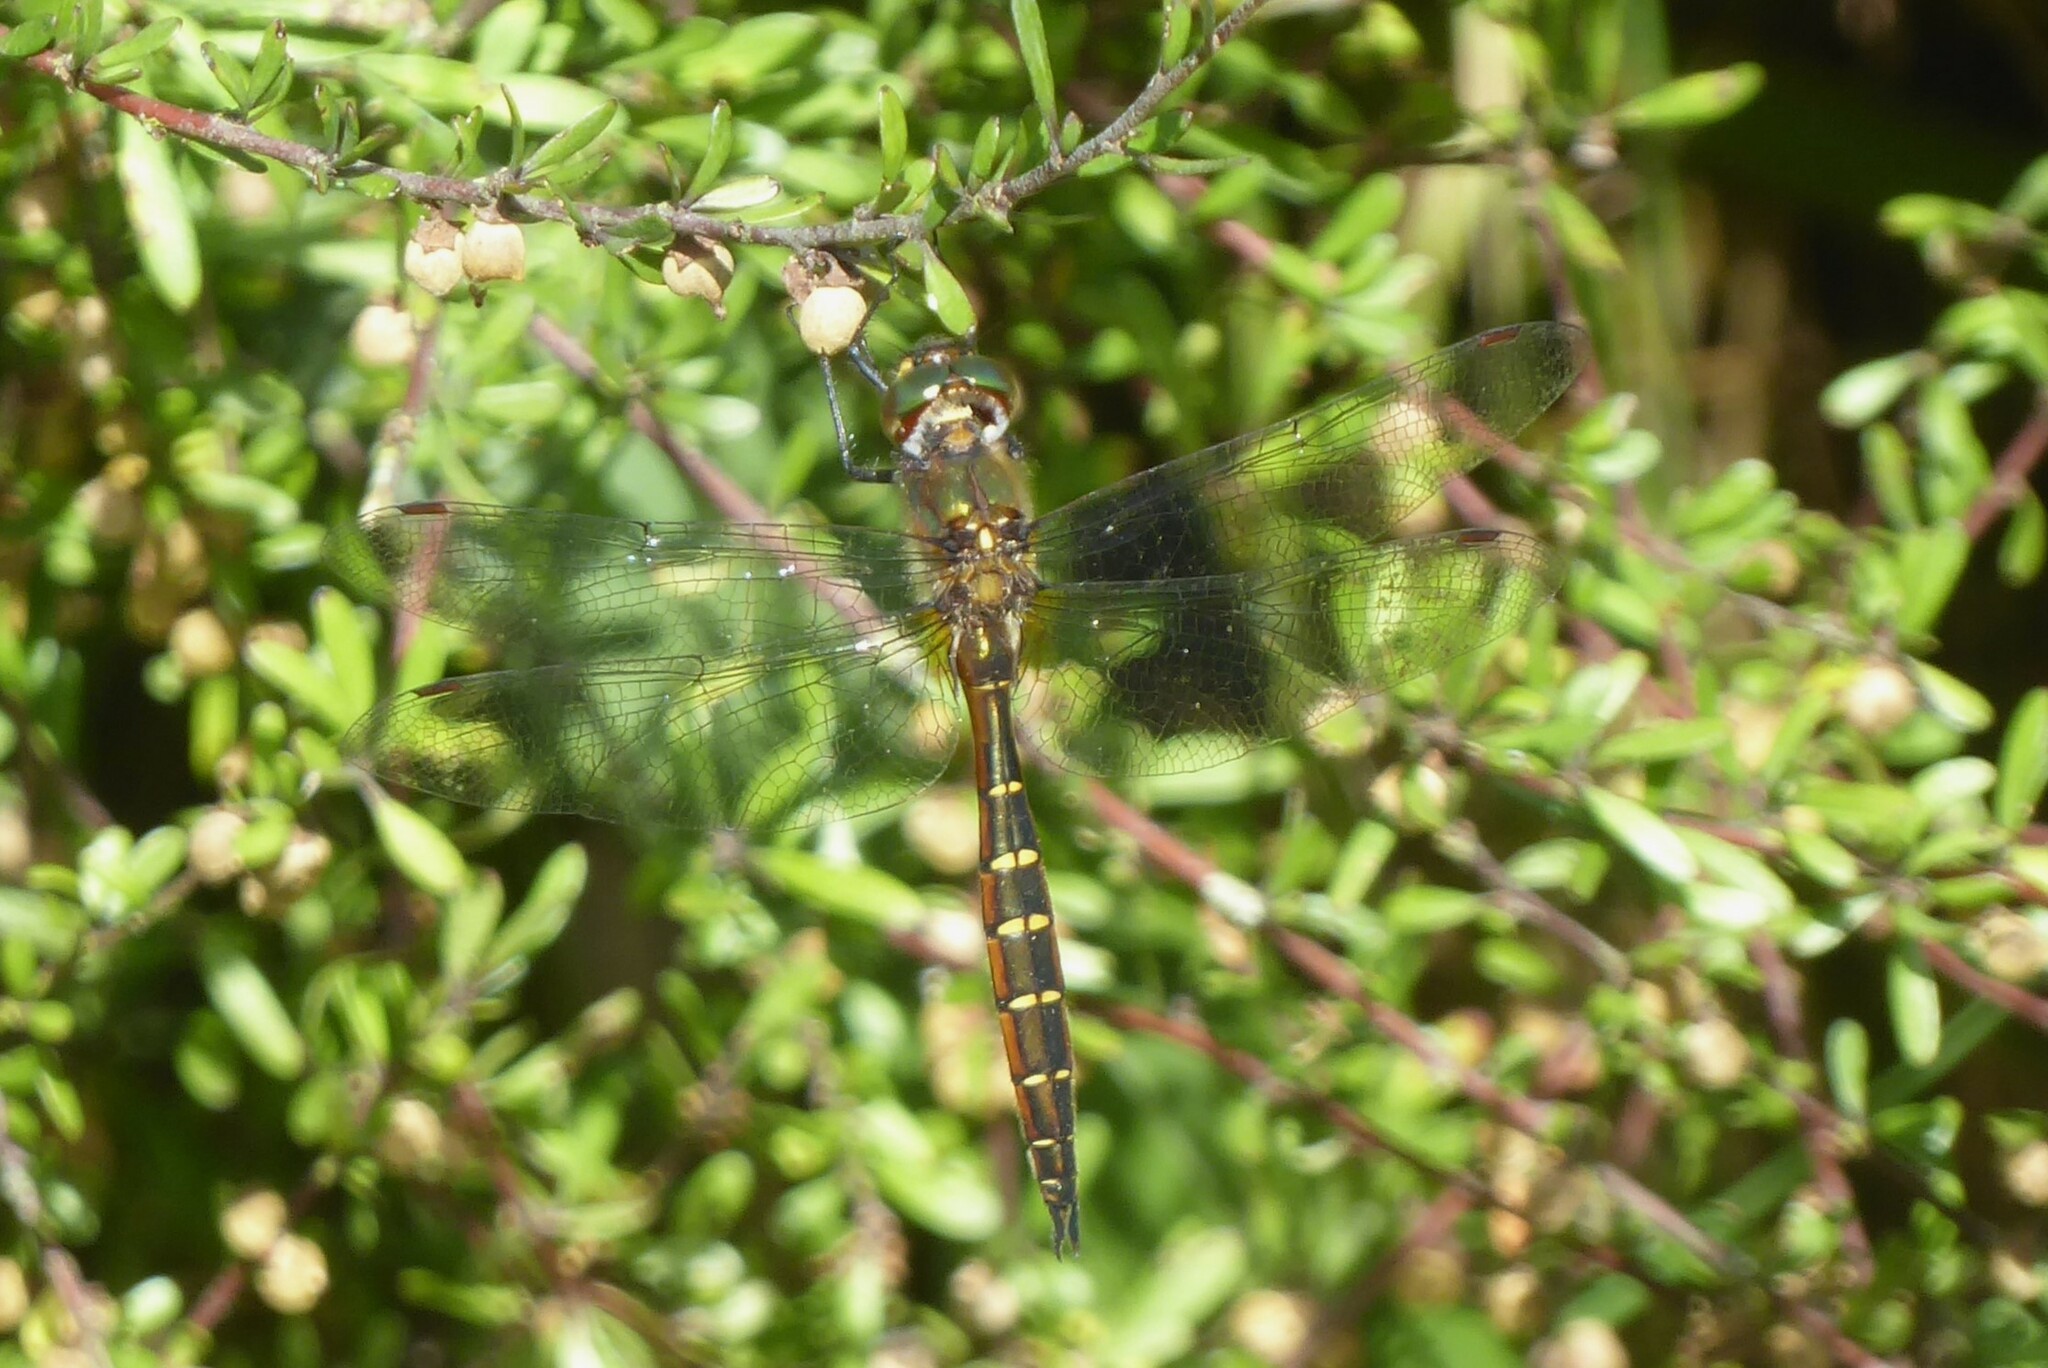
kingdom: Animalia
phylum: Arthropoda
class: Insecta
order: Odonata
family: Corduliidae
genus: Procordulia
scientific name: Procordulia smithii
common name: Ranger dragonfly
